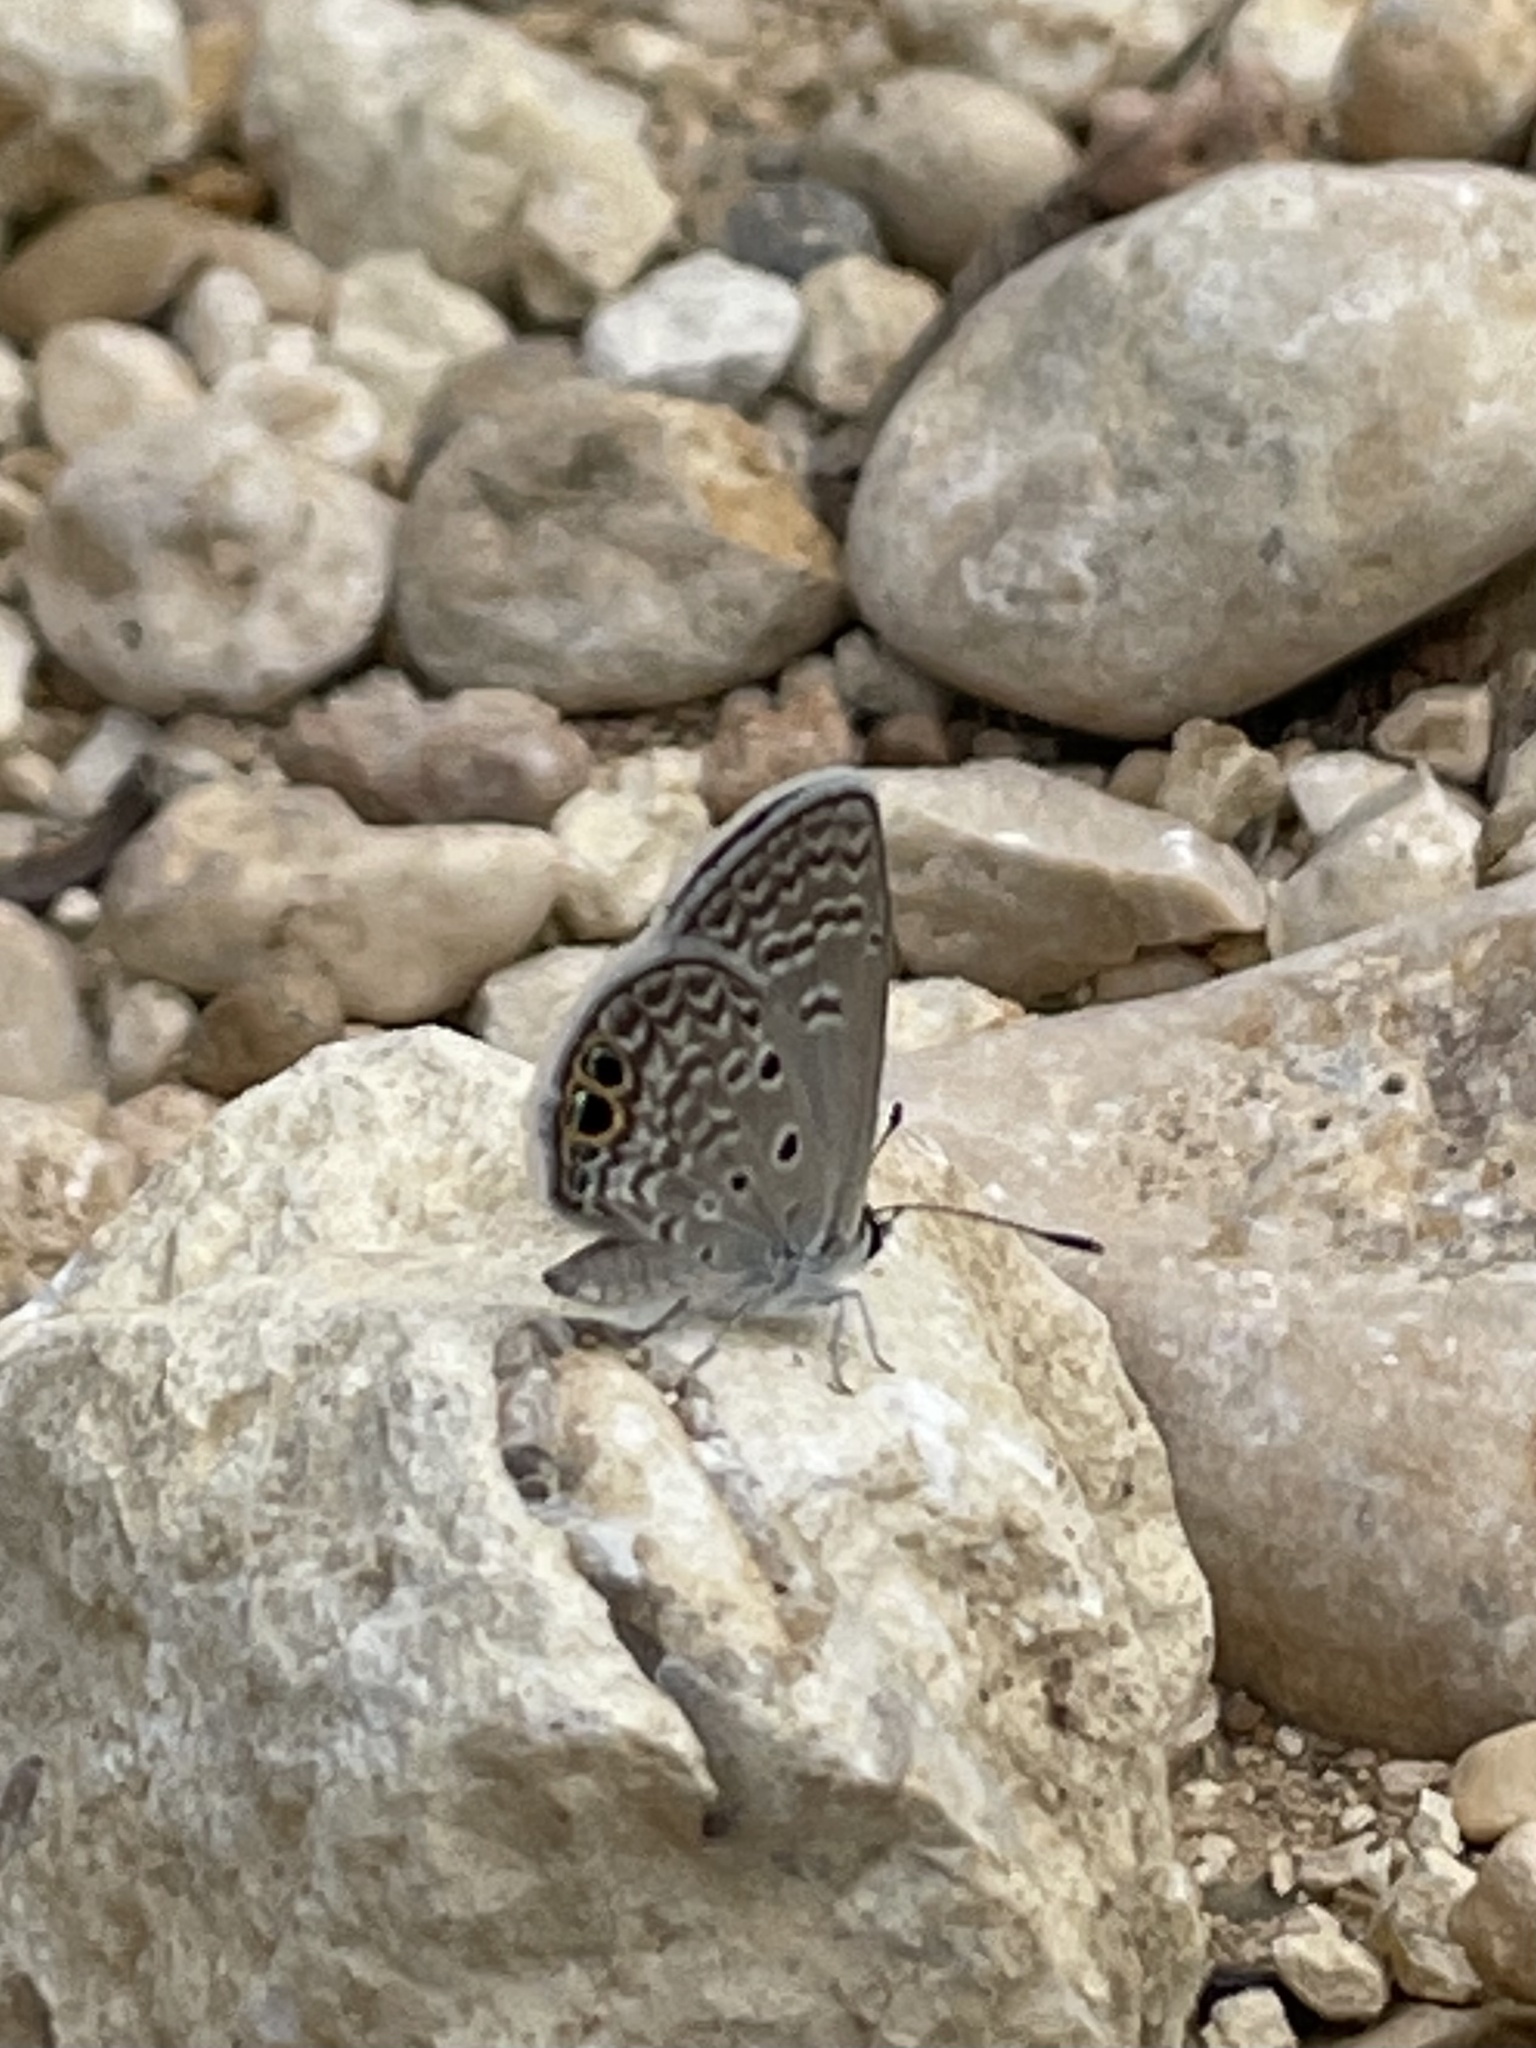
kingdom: Animalia
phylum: Arthropoda
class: Insecta
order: Lepidoptera
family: Lycaenidae
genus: Hemiargus
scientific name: Hemiargus ceraunus
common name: Ceraunus blue
